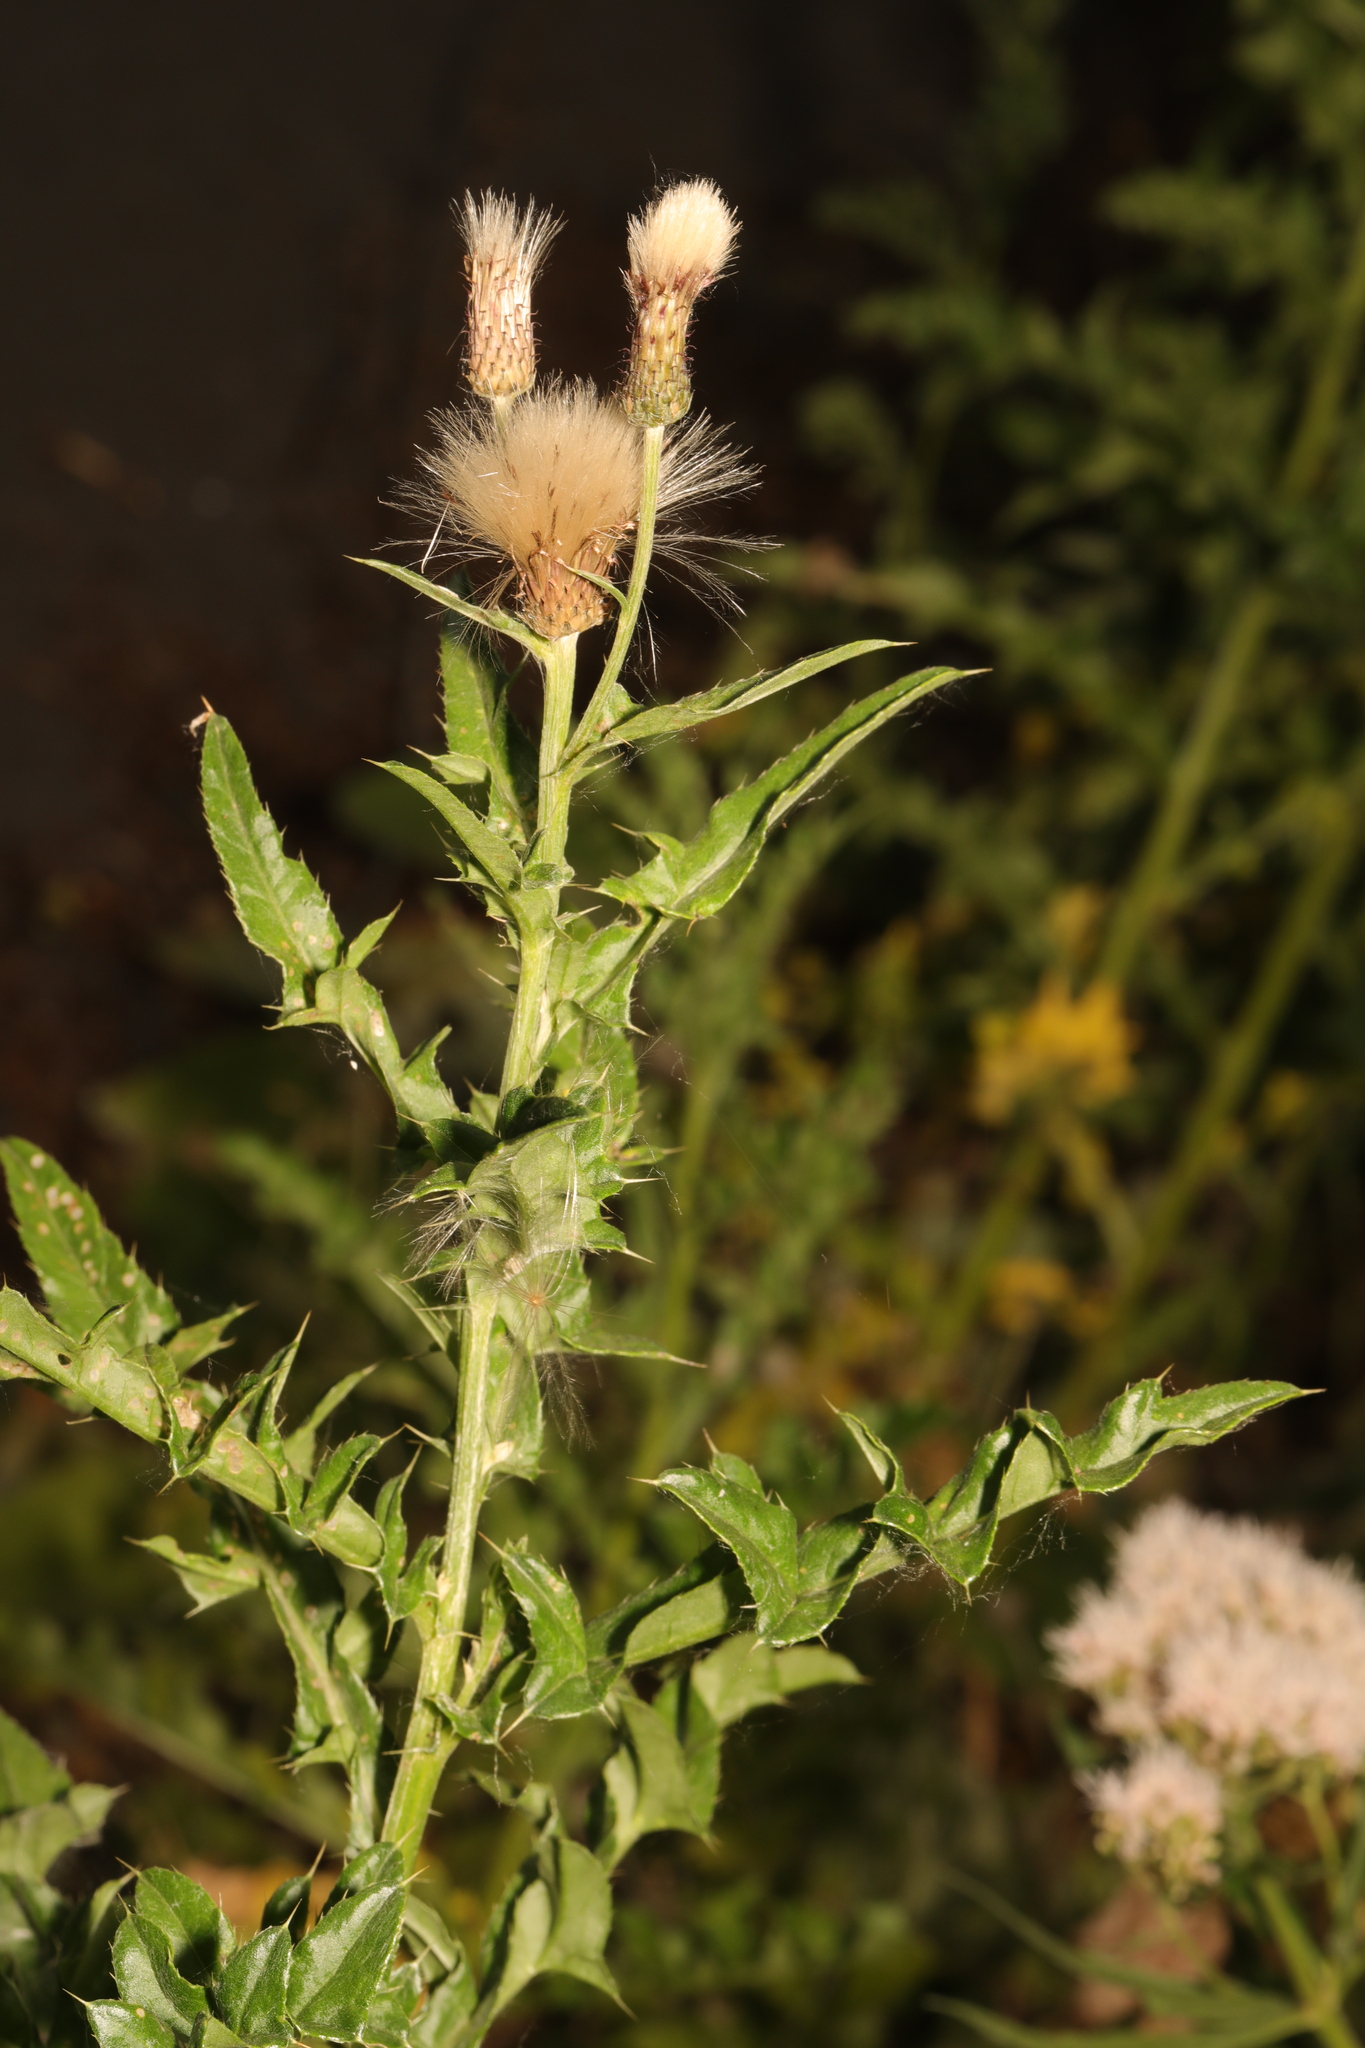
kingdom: Plantae
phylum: Tracheophyta
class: Magnoliopsida
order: Asterales
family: Asteraceae
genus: Cirsium
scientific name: Cirsium arvense
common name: Creeping thistle
